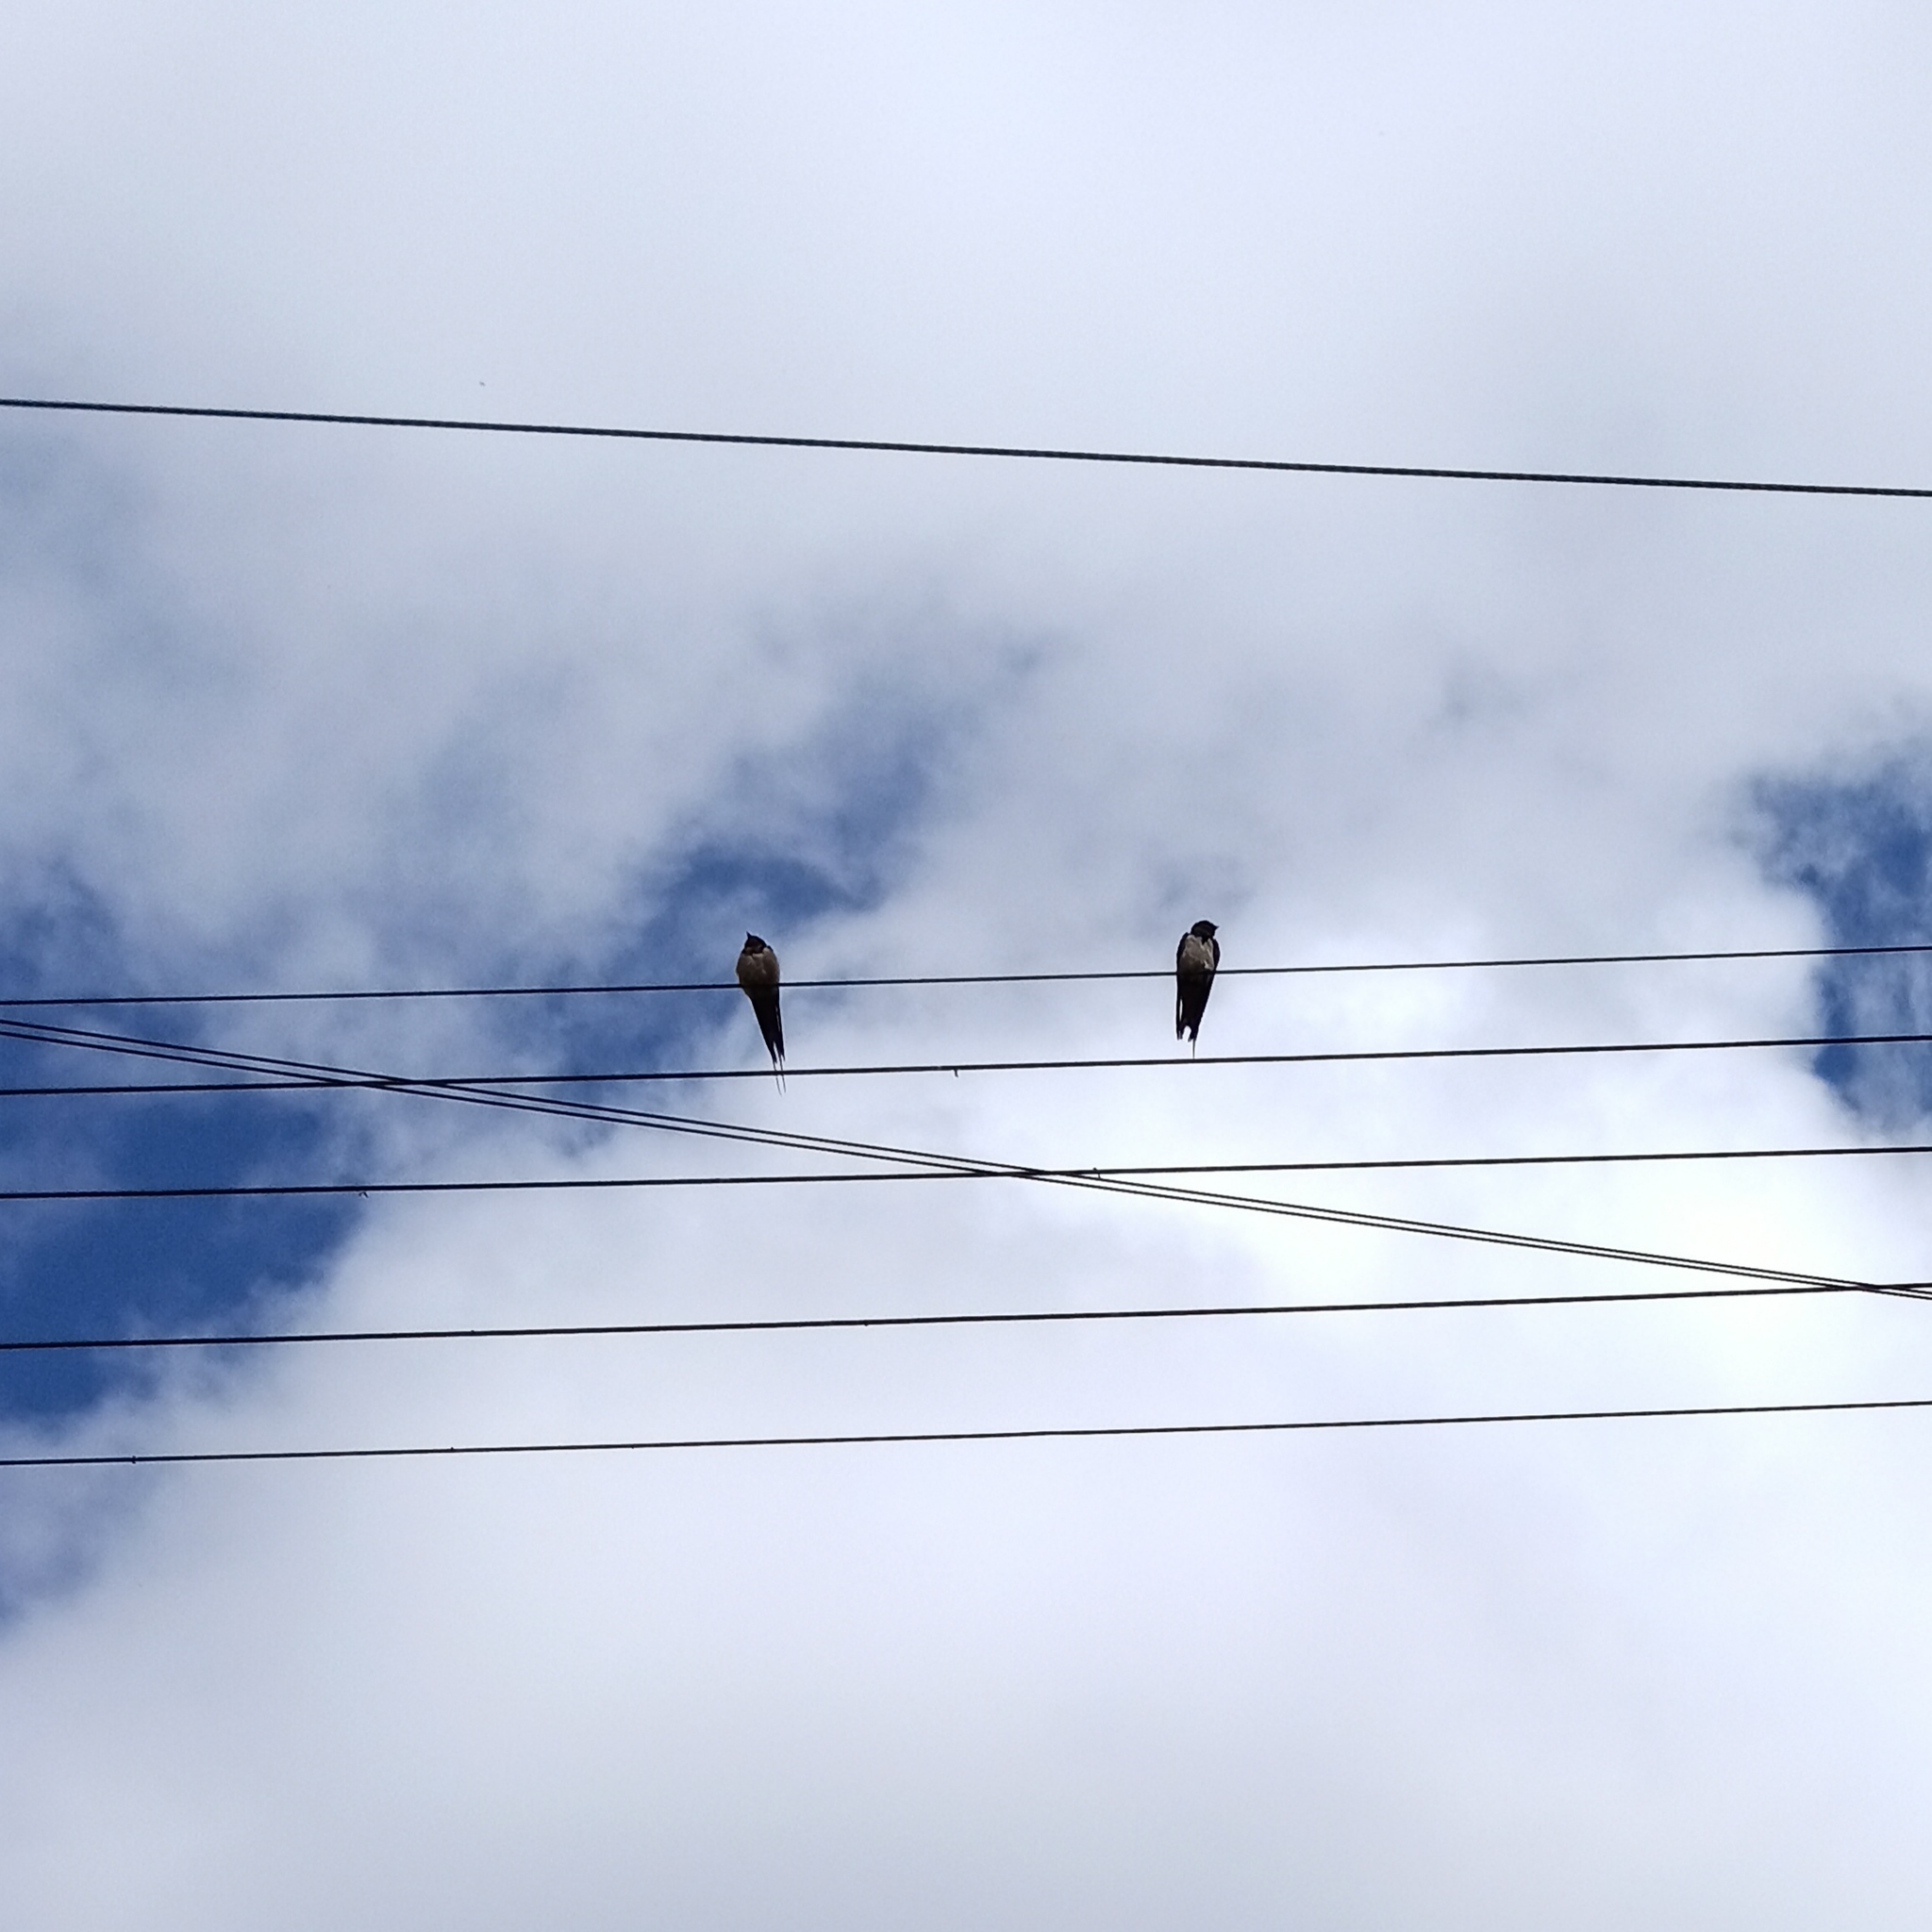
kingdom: Animalia
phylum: Chordata
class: Aves
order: Passeriformes
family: Hirundinidae
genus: Hirundo
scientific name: Hirundo rustica
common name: Barn swallow
